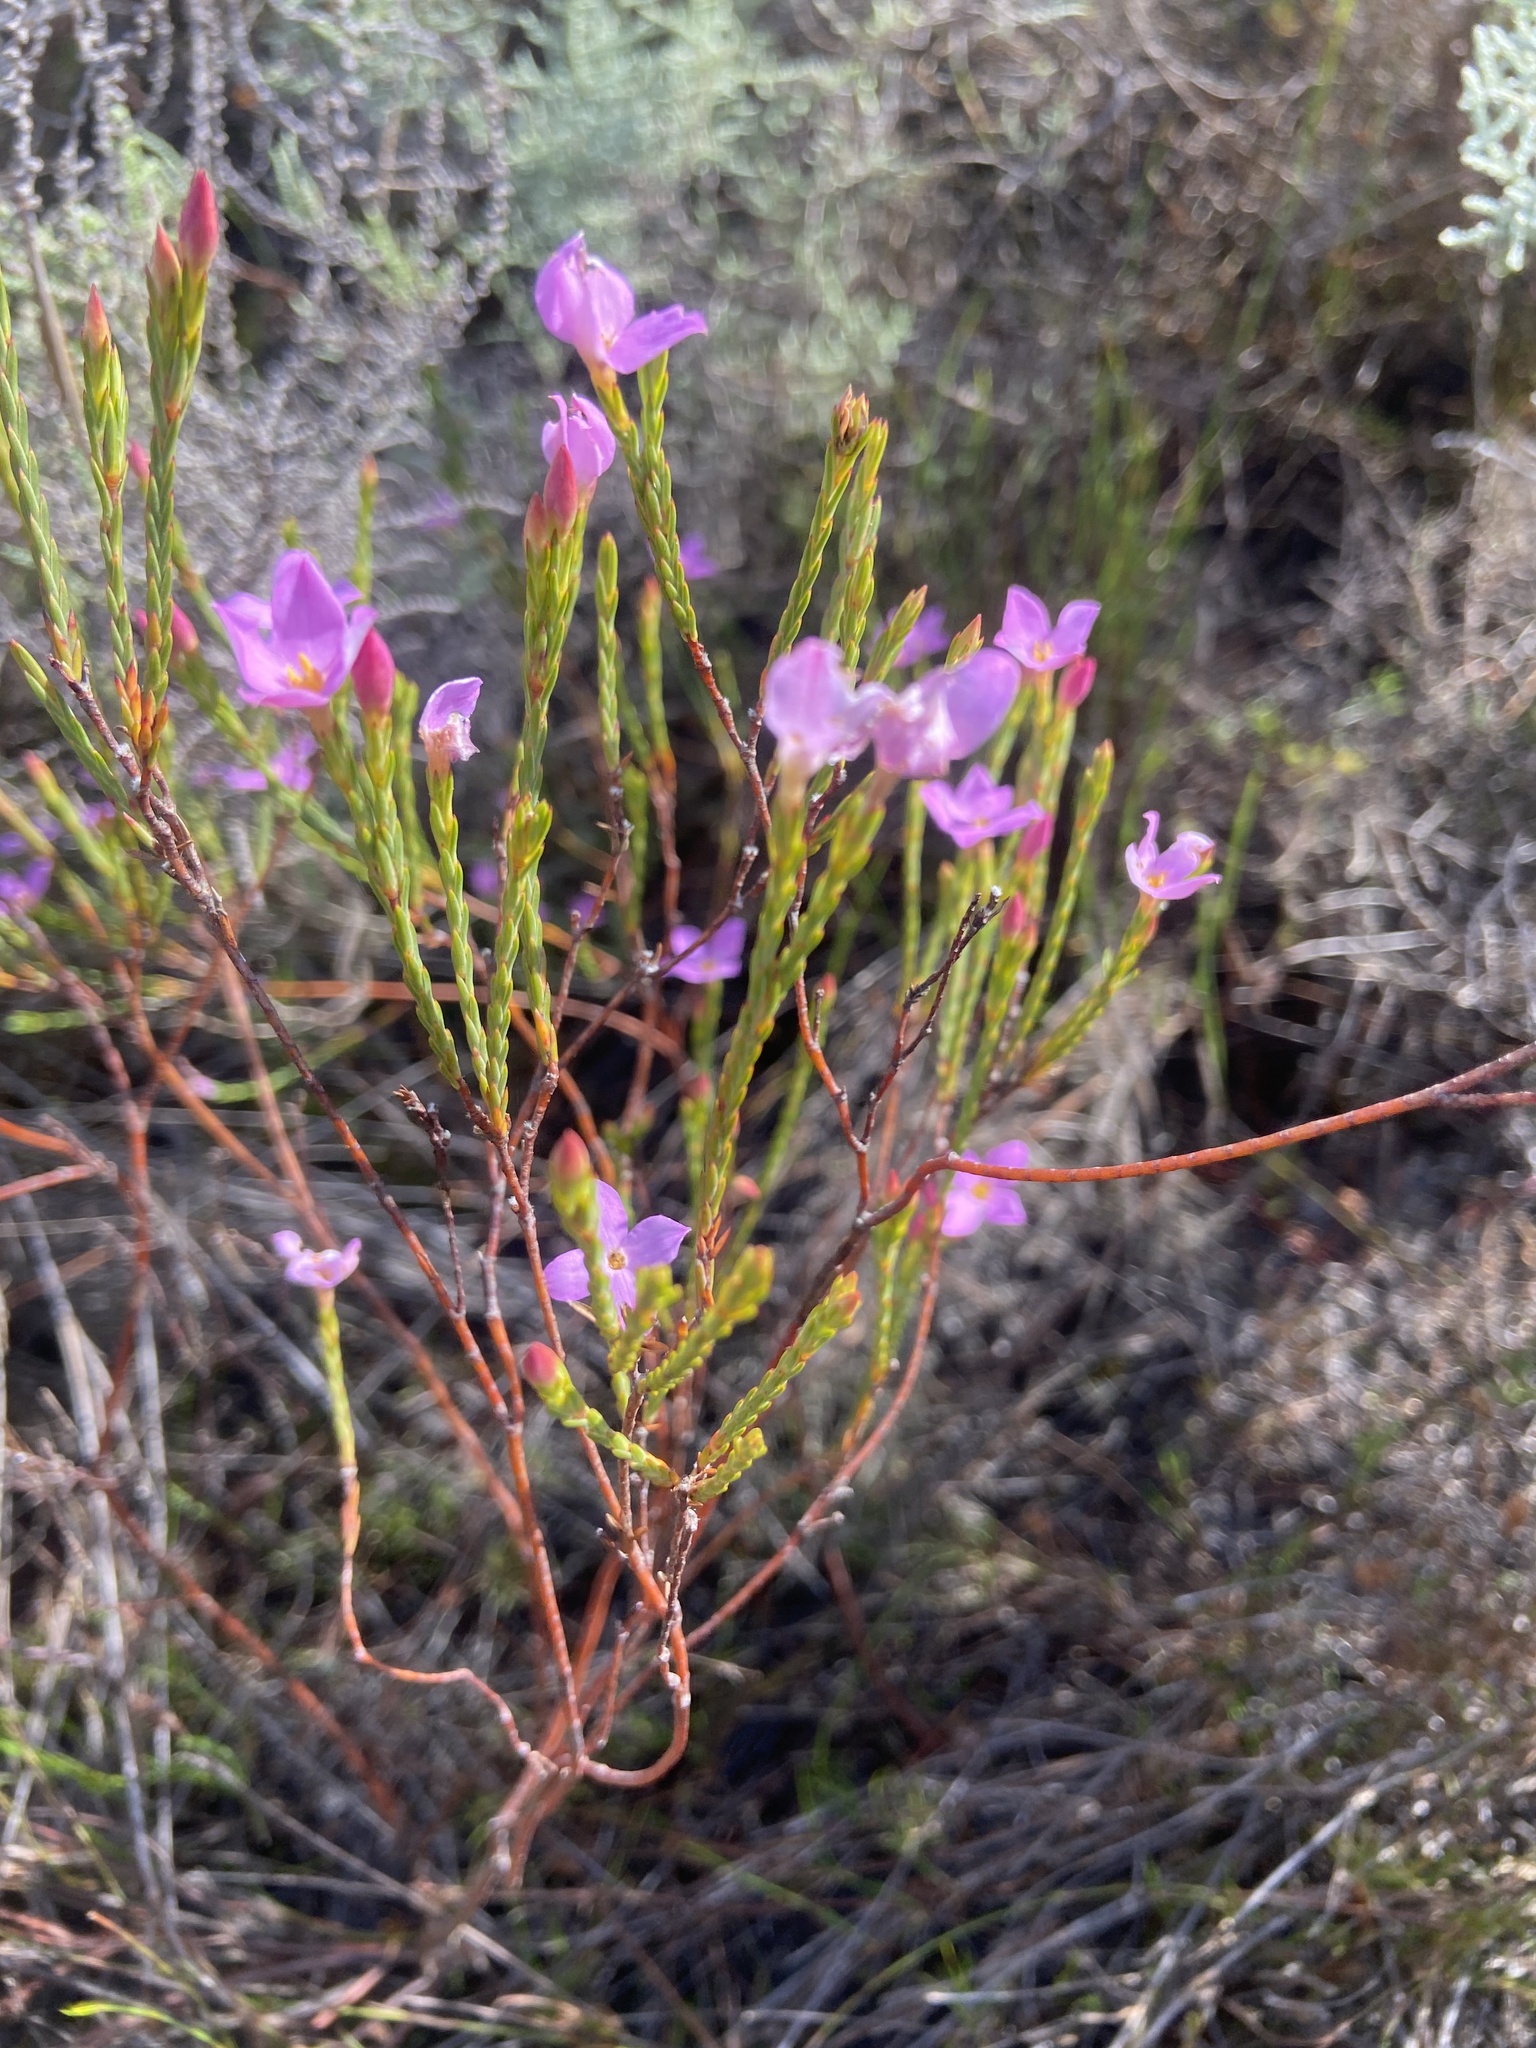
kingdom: Plantae
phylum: Tracheophyta
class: Magnoliopsida
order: Malvales
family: Thymelaeaceae
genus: Lachnaea
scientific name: Lachnaea grandiflora
